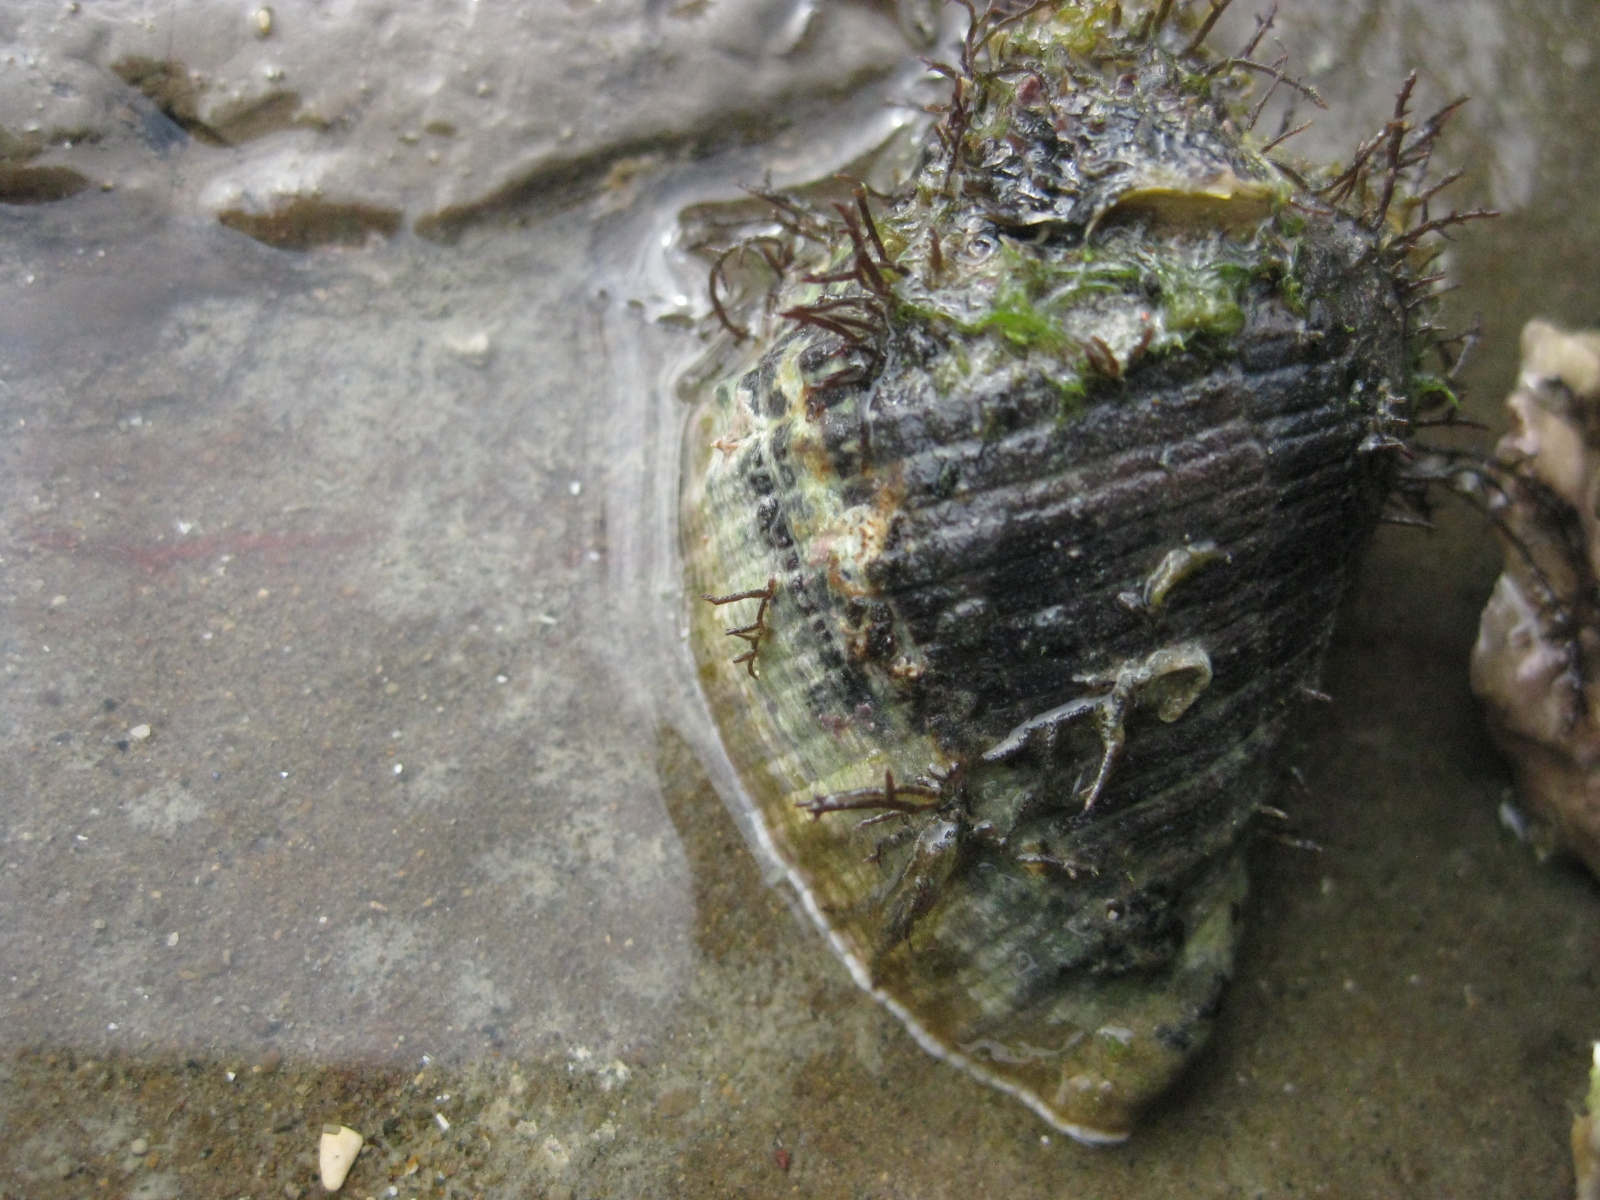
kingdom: Animalia
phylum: Mollusca
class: Gastropoda
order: Neogastropoda
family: Muricidae
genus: Haustrum
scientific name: Haustrum haustorium
